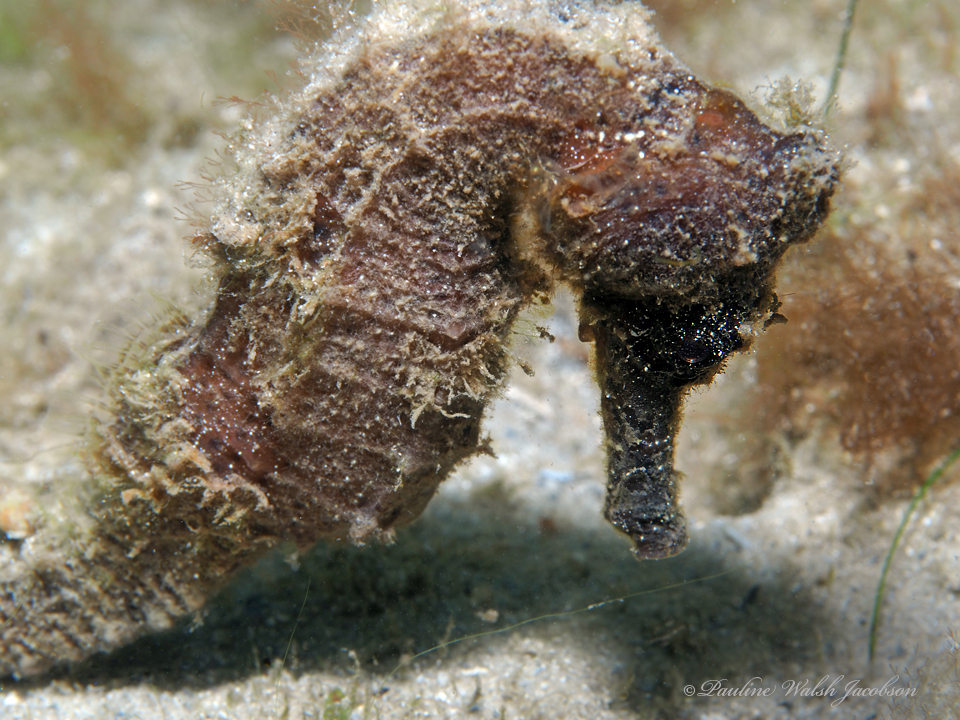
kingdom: Animalia
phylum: Chordata
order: Syngnathiformes
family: Syngnathidae
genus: Hippocampus
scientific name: Hippocampus reidi
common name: Slender seahorse
